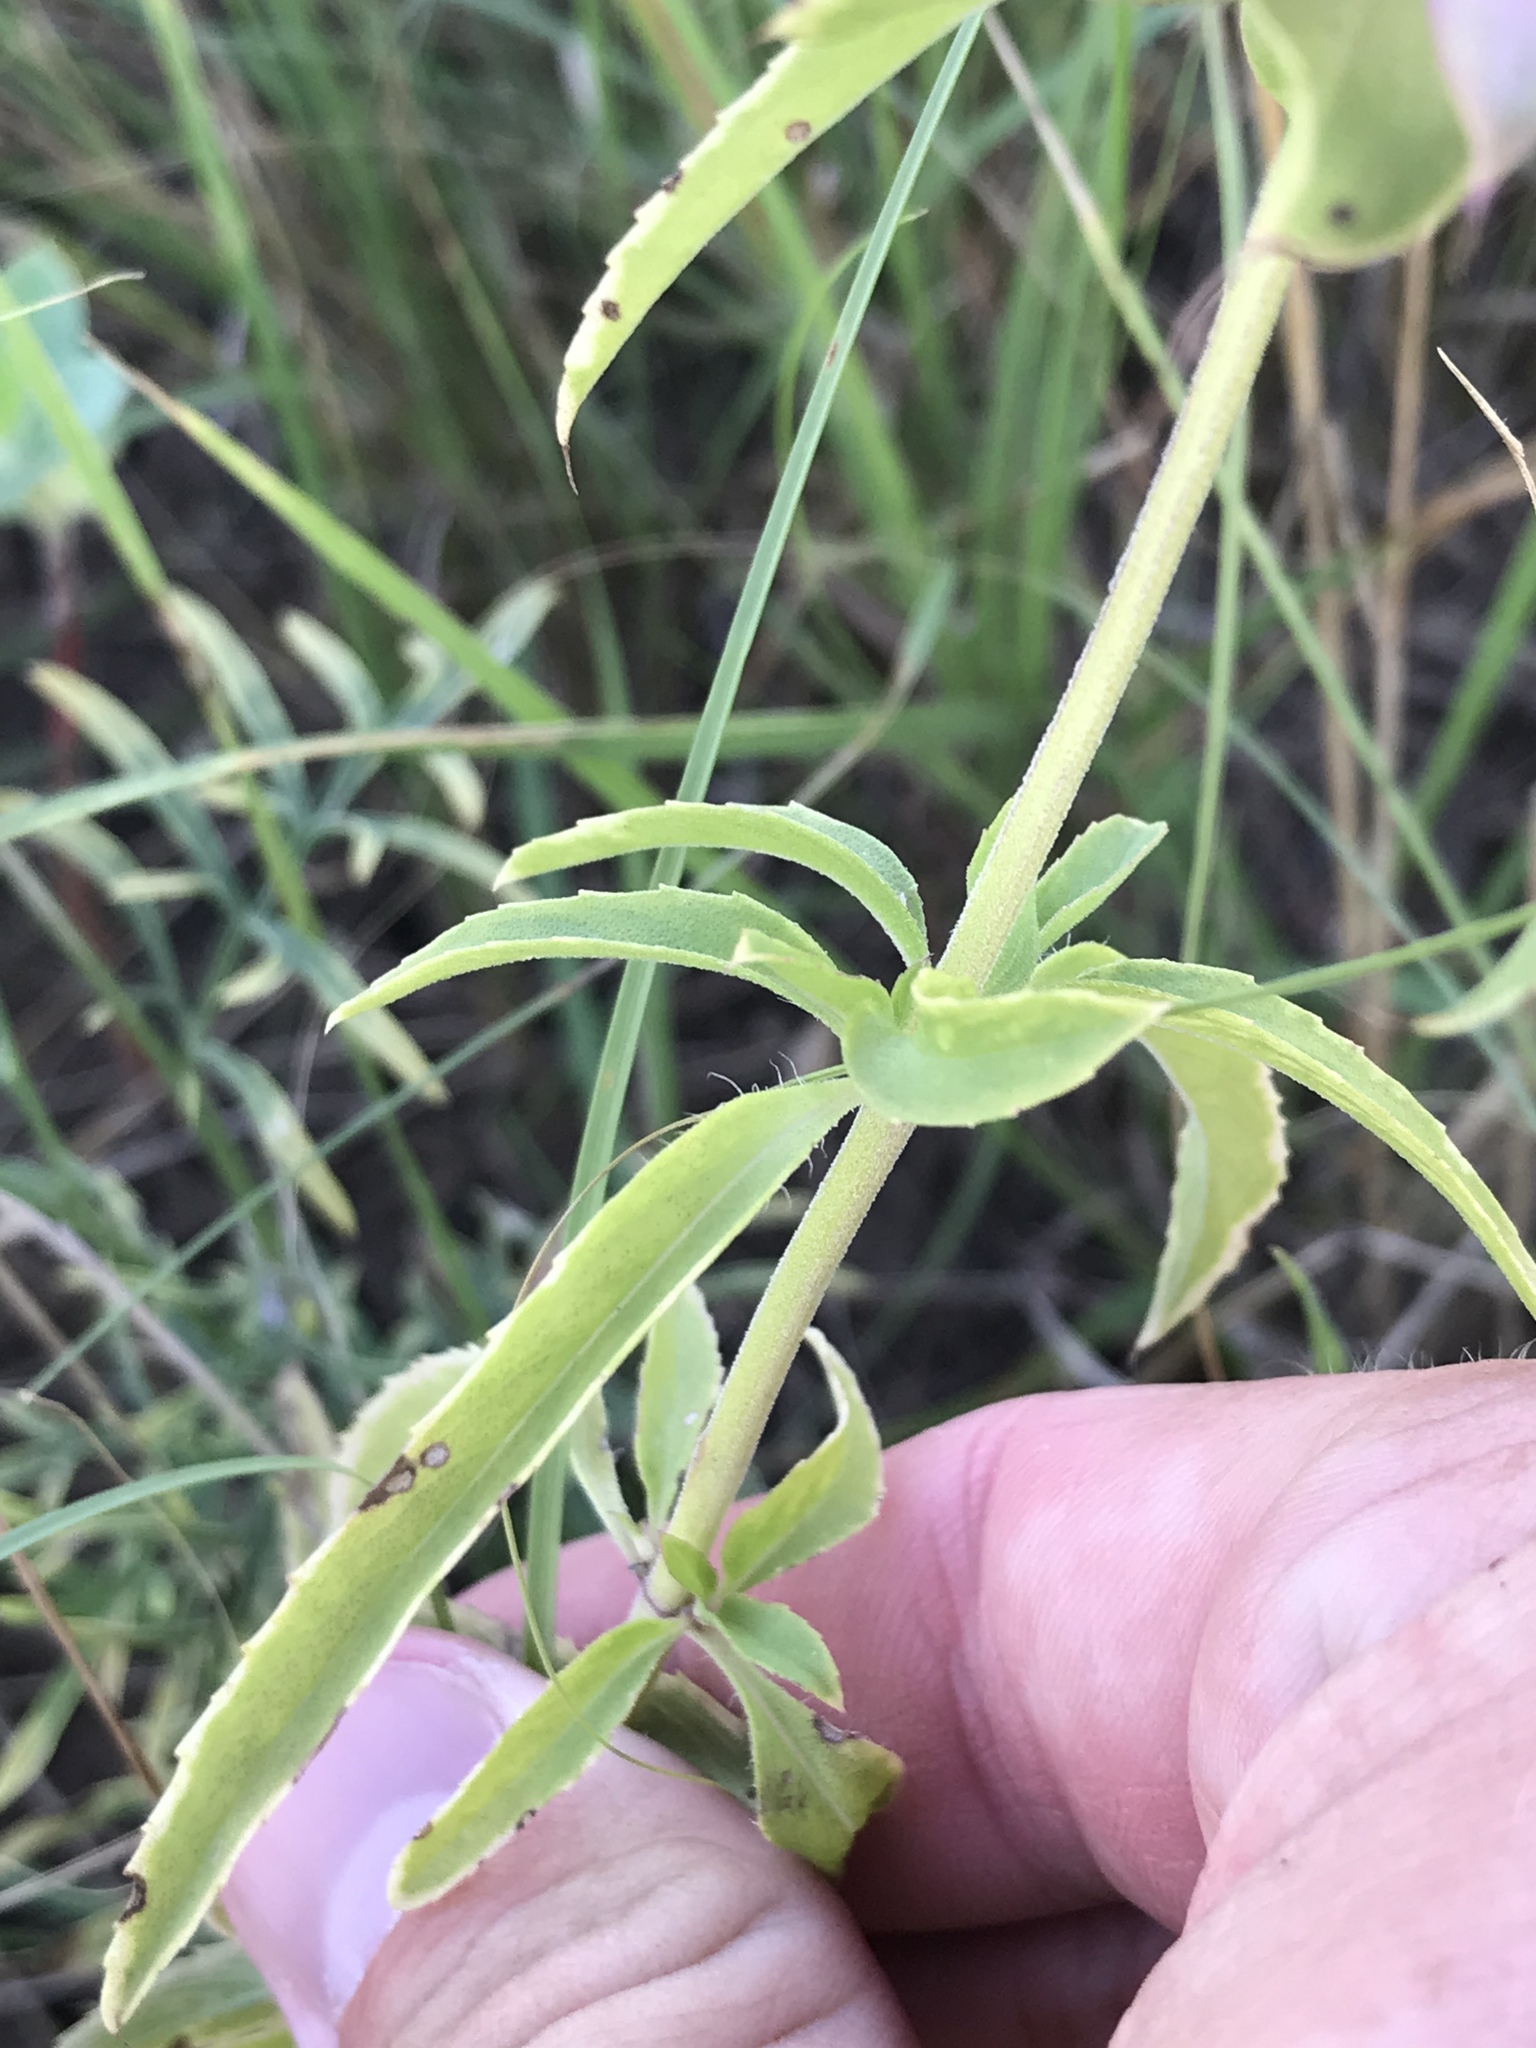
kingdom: Plantae
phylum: Tracheophyta
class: Magnoliopsida
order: Lamiales
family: Lamiaceae
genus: Monarda
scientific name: Monarda citriodora
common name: Lemon beebalm
